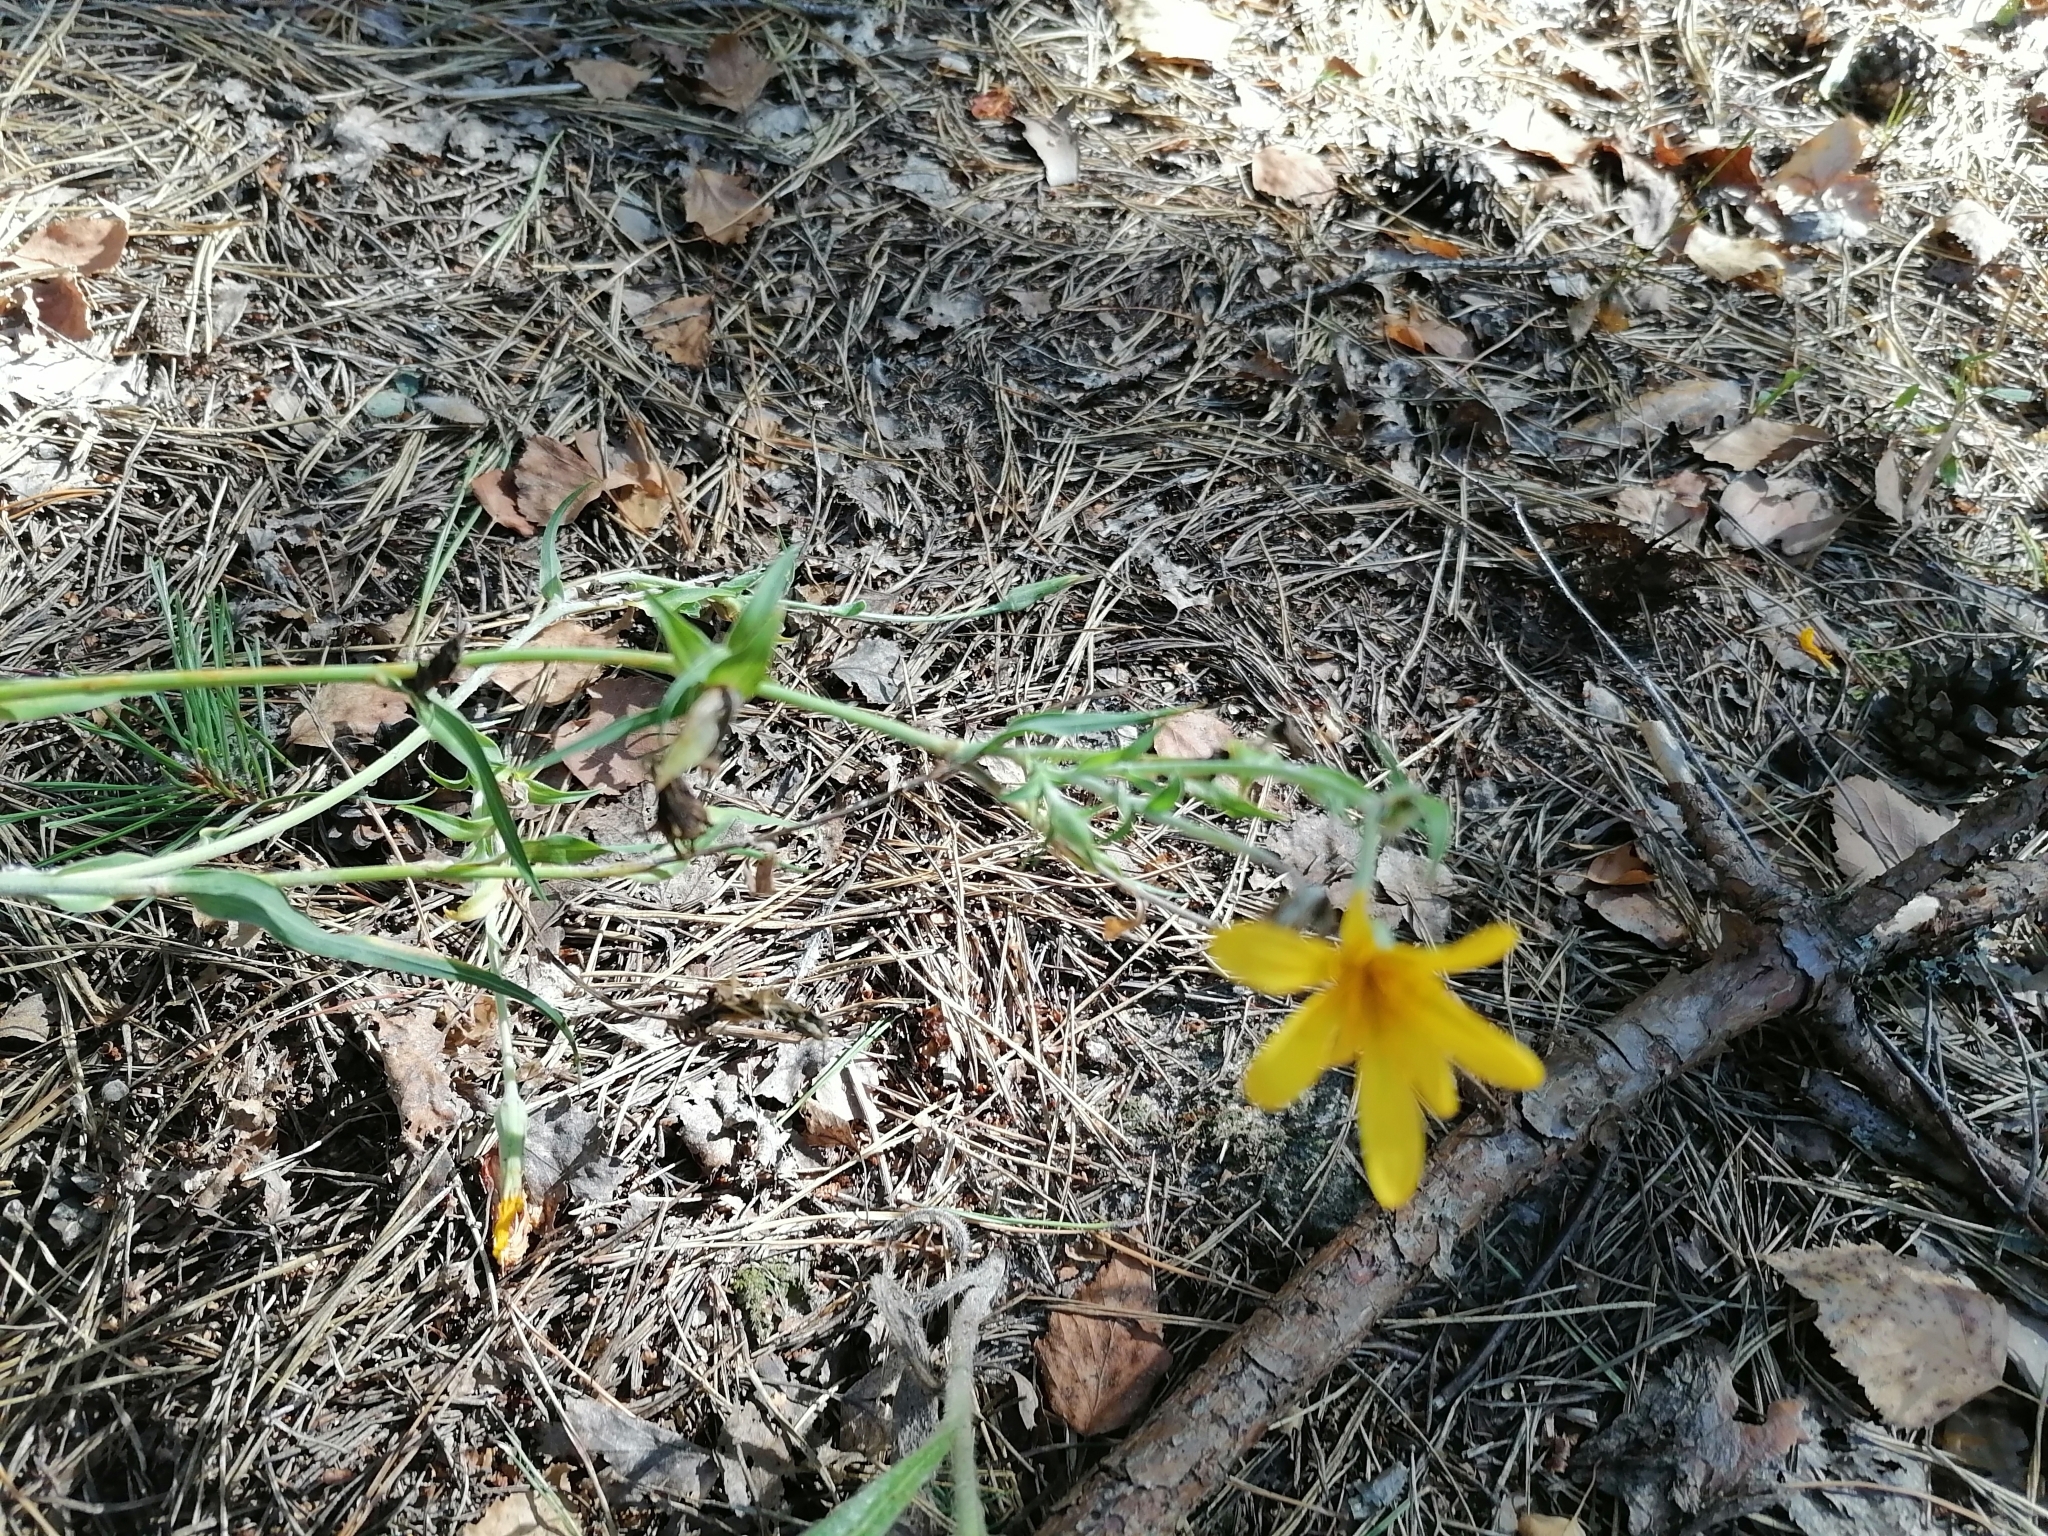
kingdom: Plantae
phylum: Tracheophyta
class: Magnoliopsida
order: Asterales
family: Asteraceae
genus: Tragopogon
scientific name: Tragopogon ucrainicus
